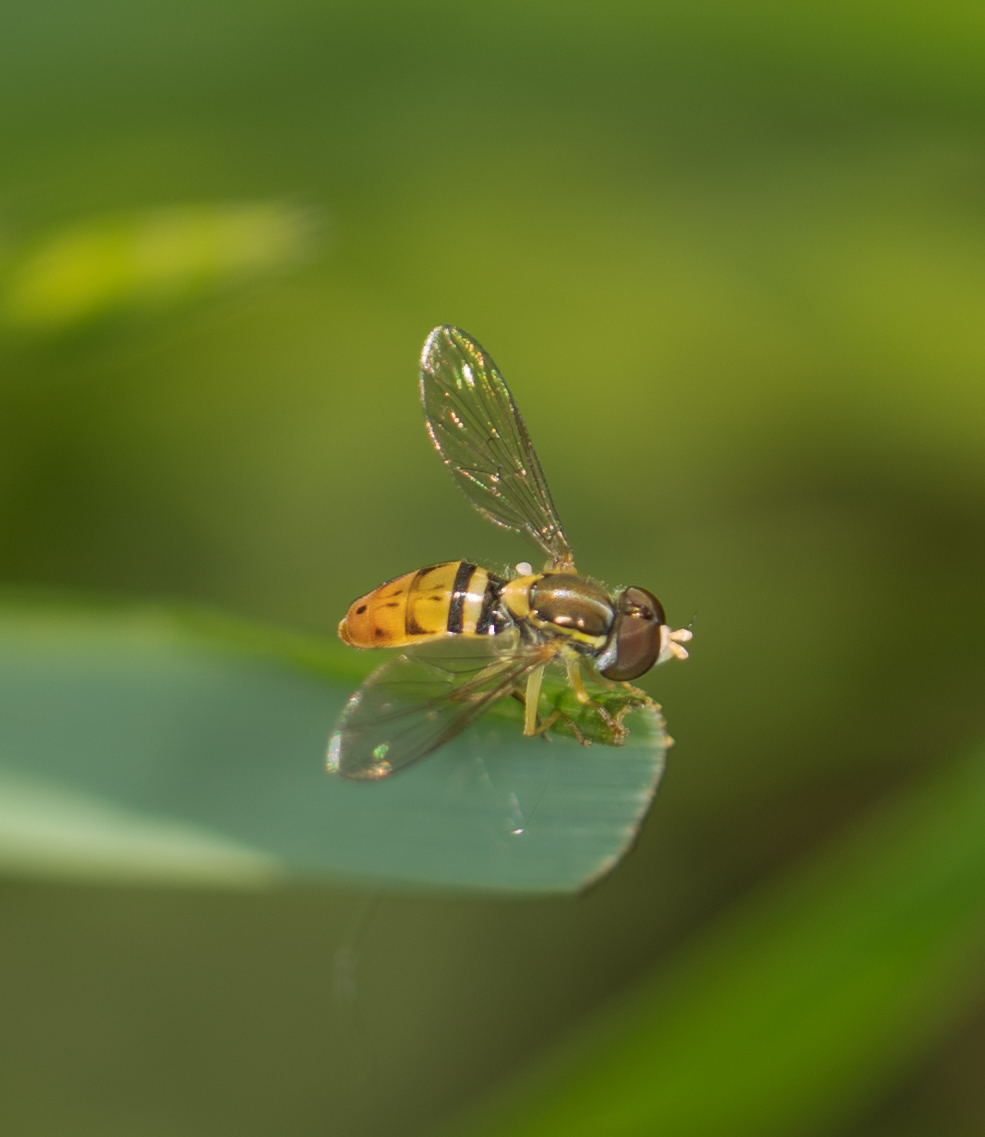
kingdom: Animalia
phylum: Arthropoda
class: Insecta
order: Diptera
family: Syrphidae
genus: Toxomerus
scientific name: Toxomerus marginatus
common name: Syrphid fly
